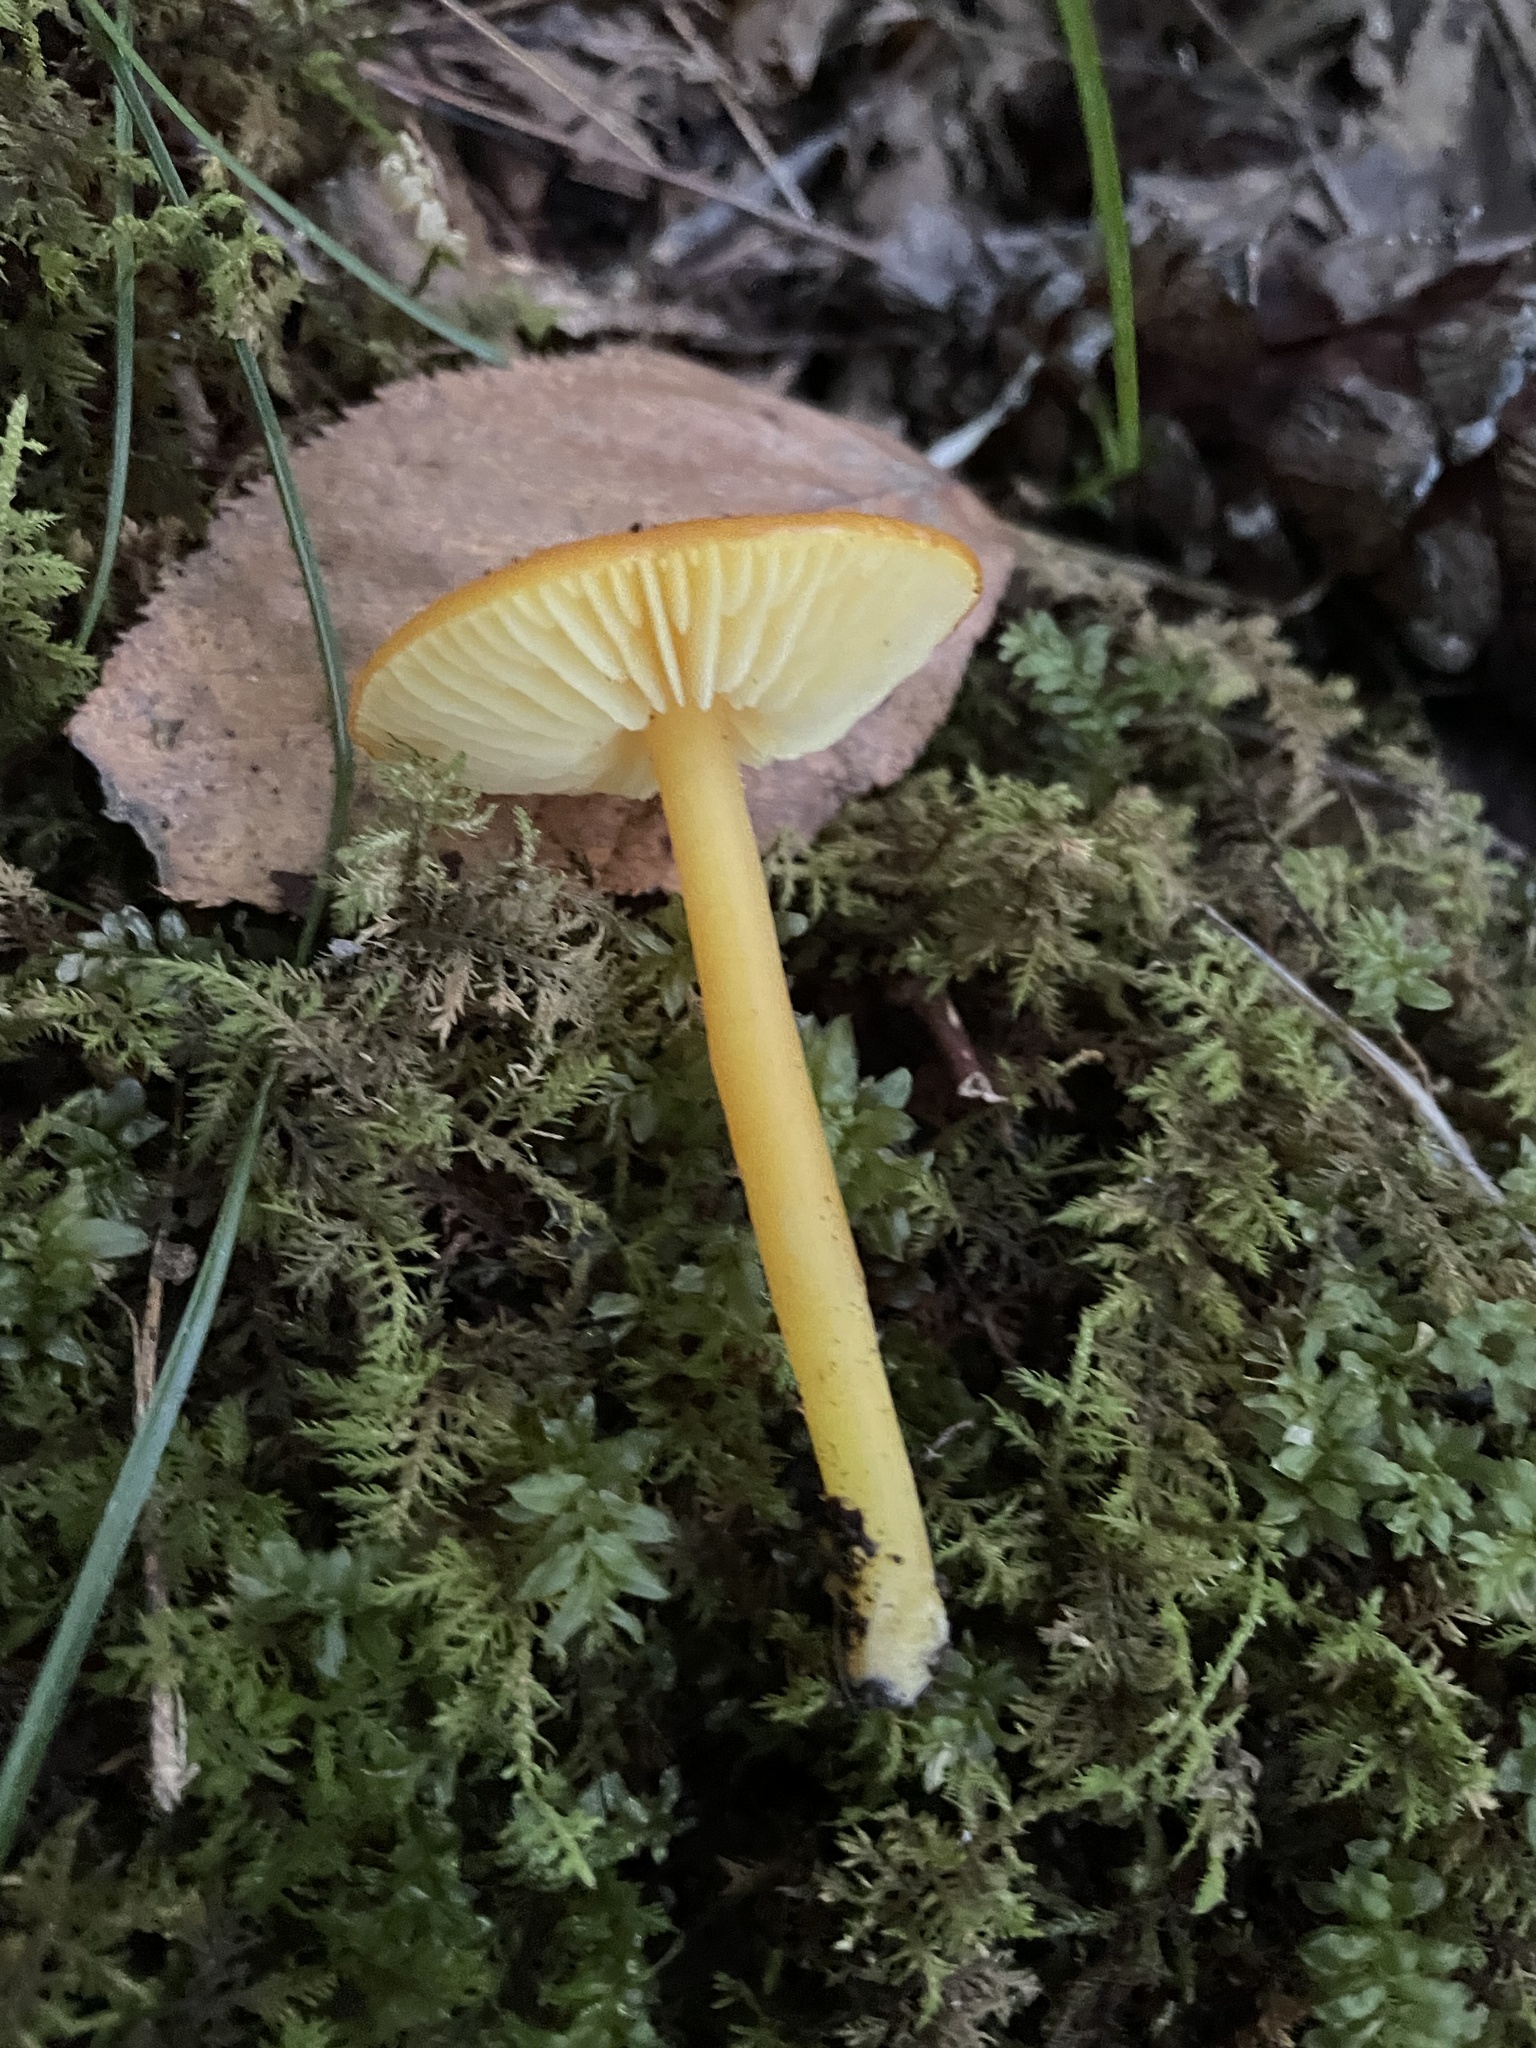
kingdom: Fungi
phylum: Basidiomycota
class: Agaricomycetes
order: Agaricales
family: Hygrophoraceae
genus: Hygrocybe
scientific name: Hygrocybe chlorophana
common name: Golden waxcap
